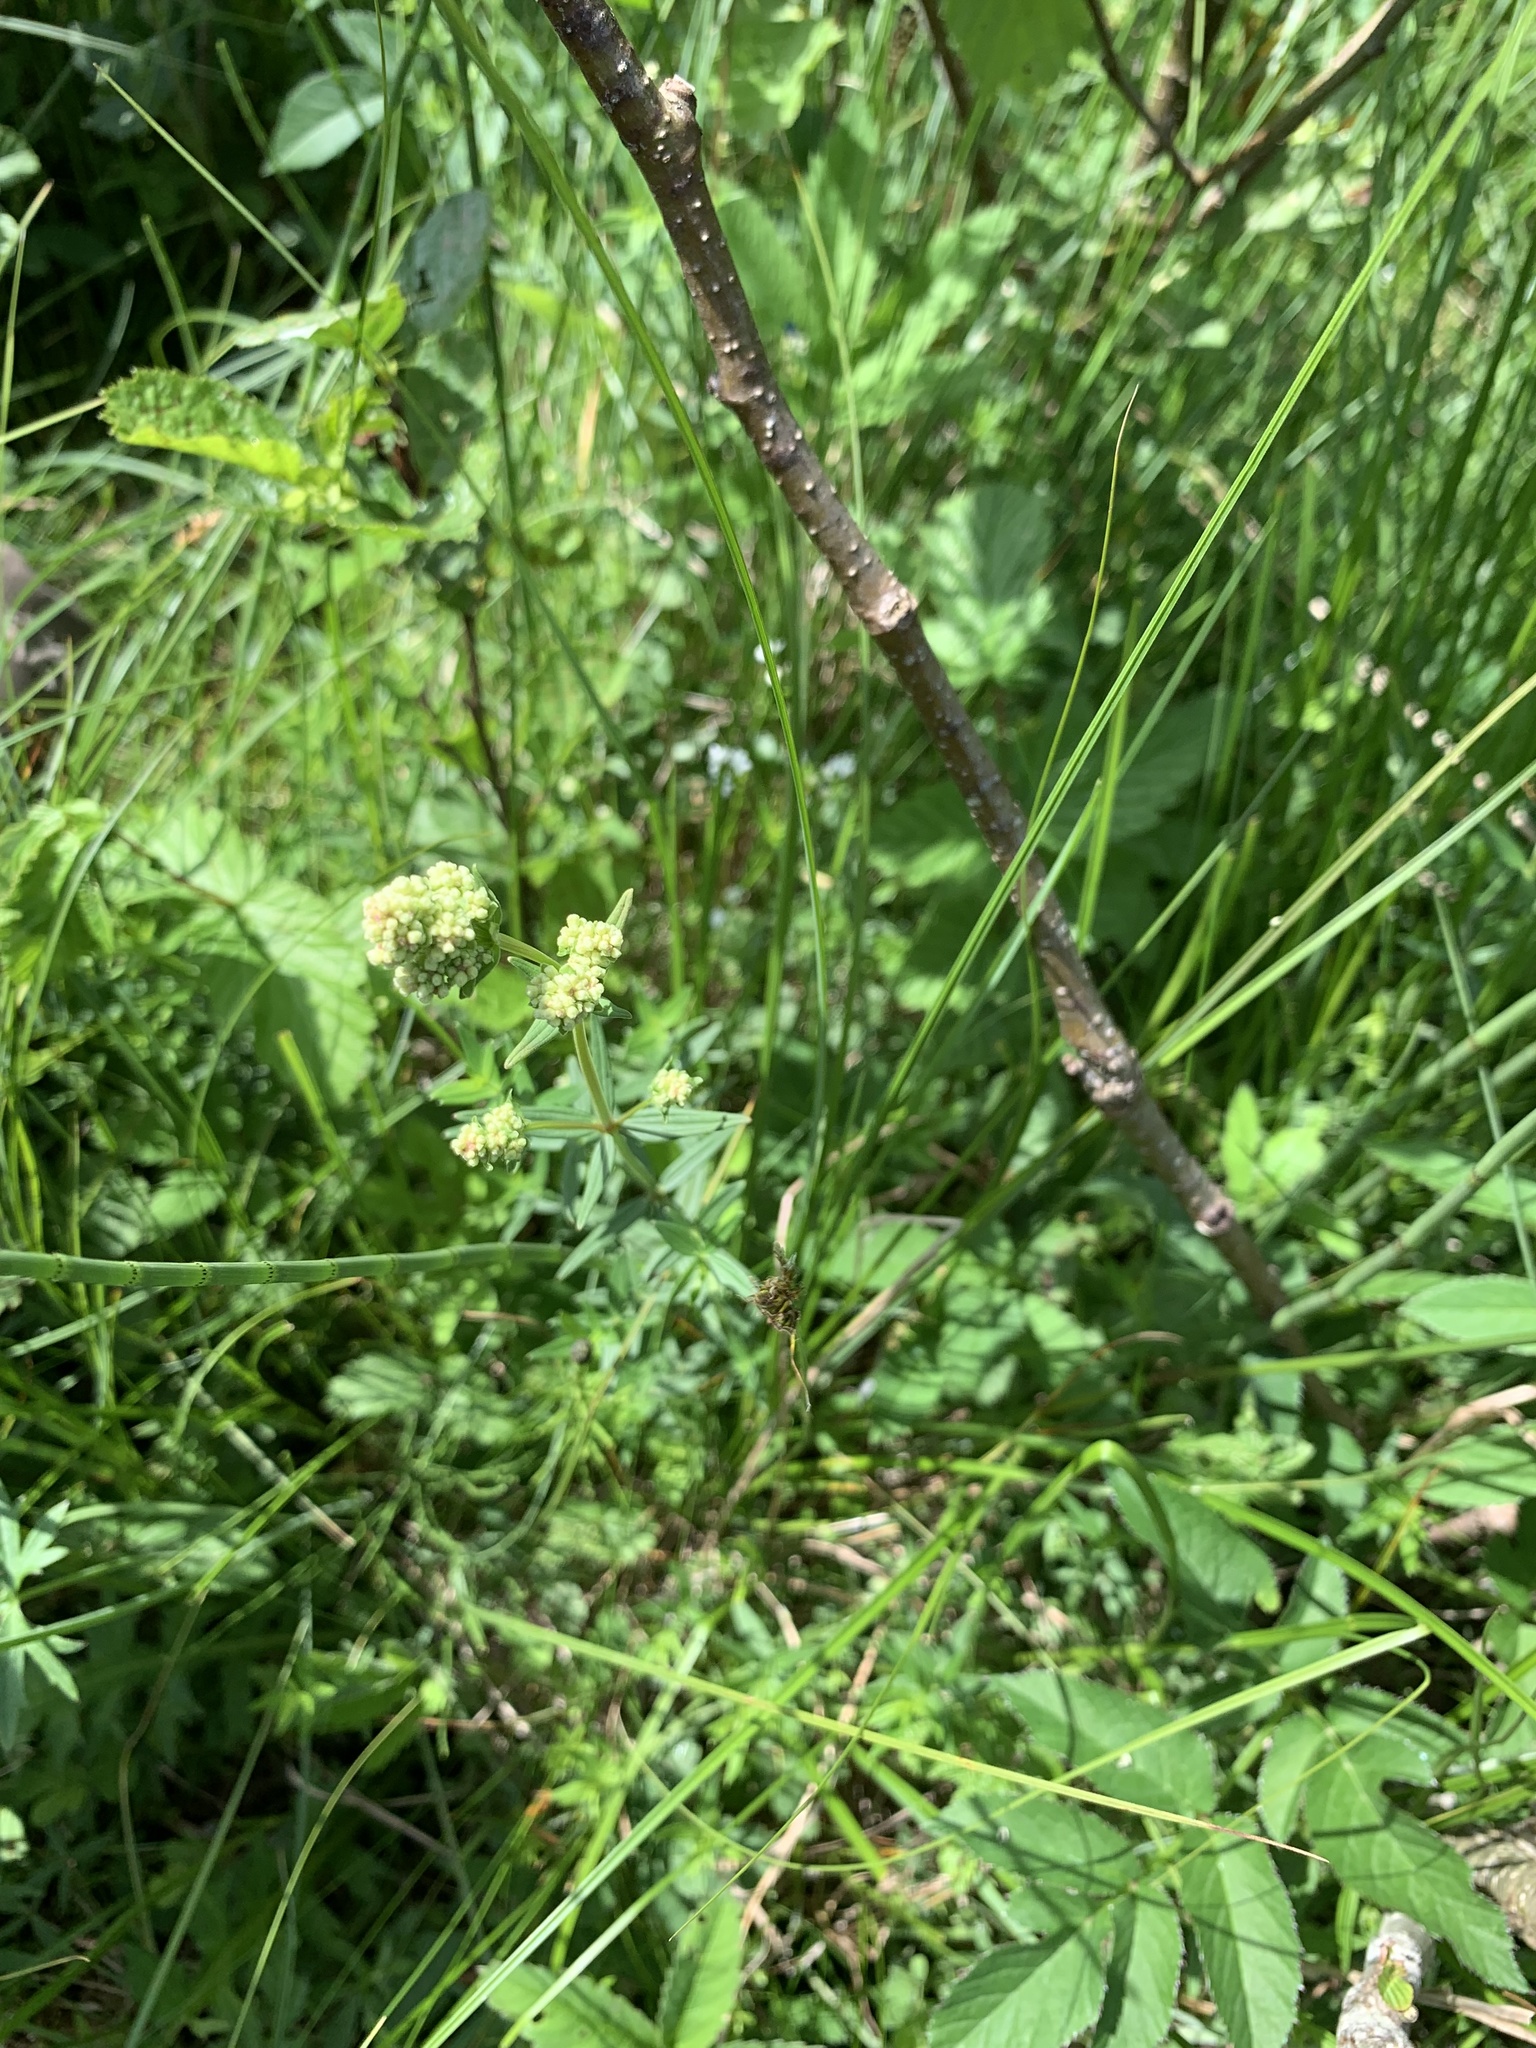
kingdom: Plantae
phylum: Tracheophyta
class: Magnoliopsida
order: Gentianales
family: Rubiaceae
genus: Galium
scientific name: Galium boreale
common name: Northern bedstraw
